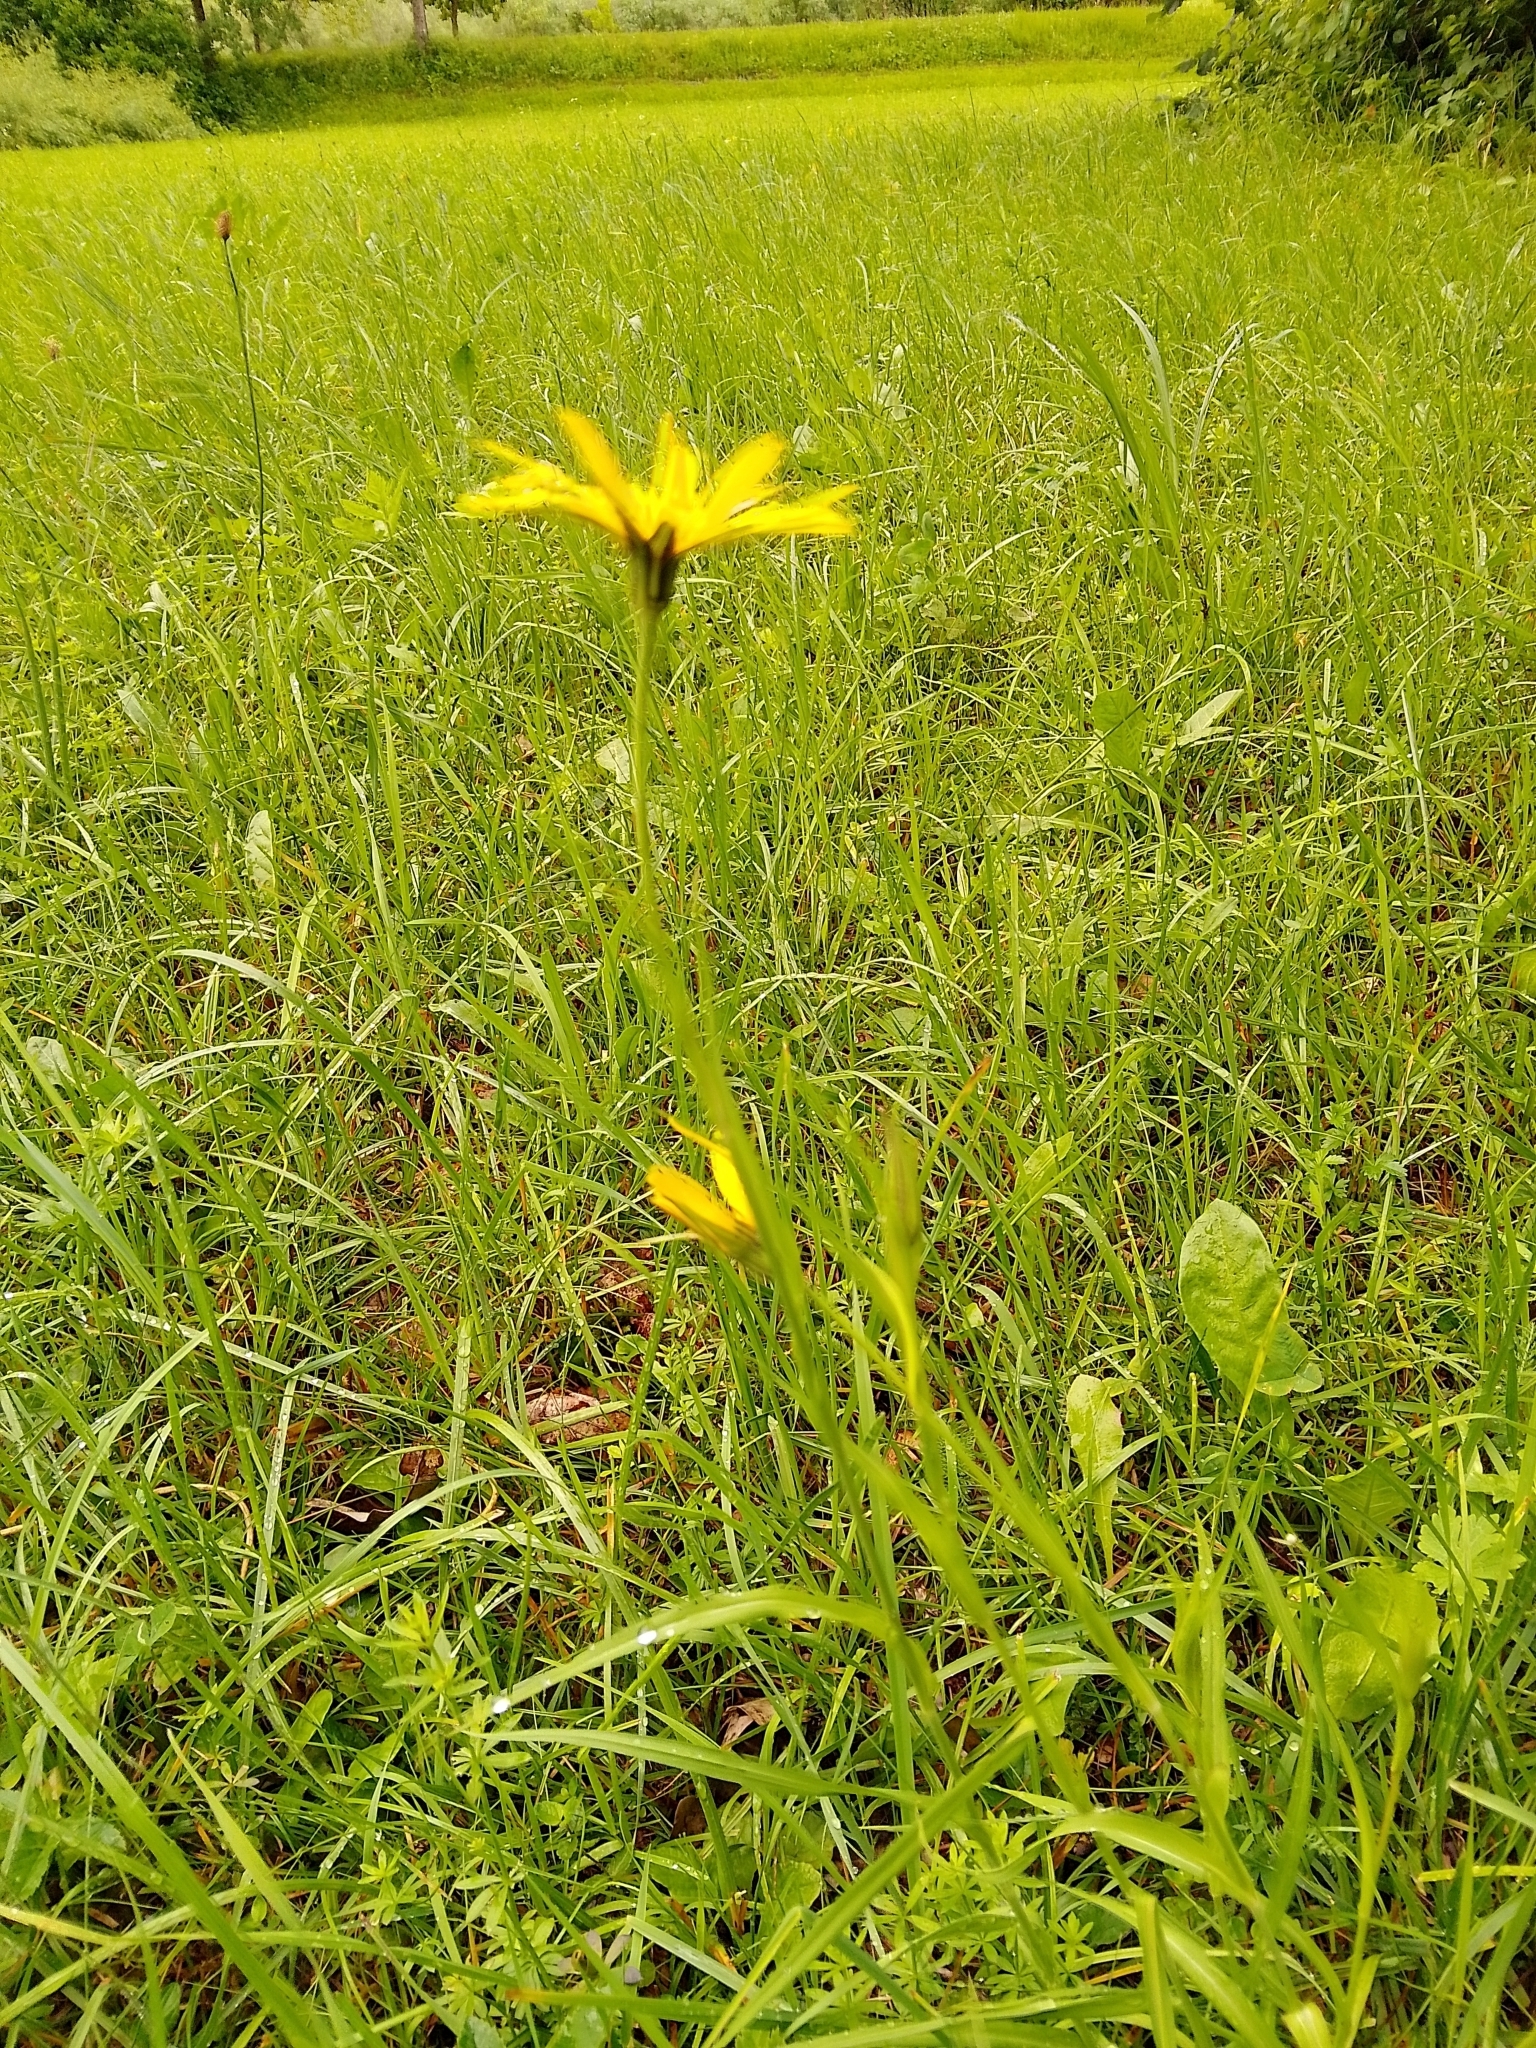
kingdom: Plantae
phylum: Tracheophyta
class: Magnoliopsida
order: Asterales
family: Asteraceae
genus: Tragopogon
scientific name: Tragopogon orientalis
